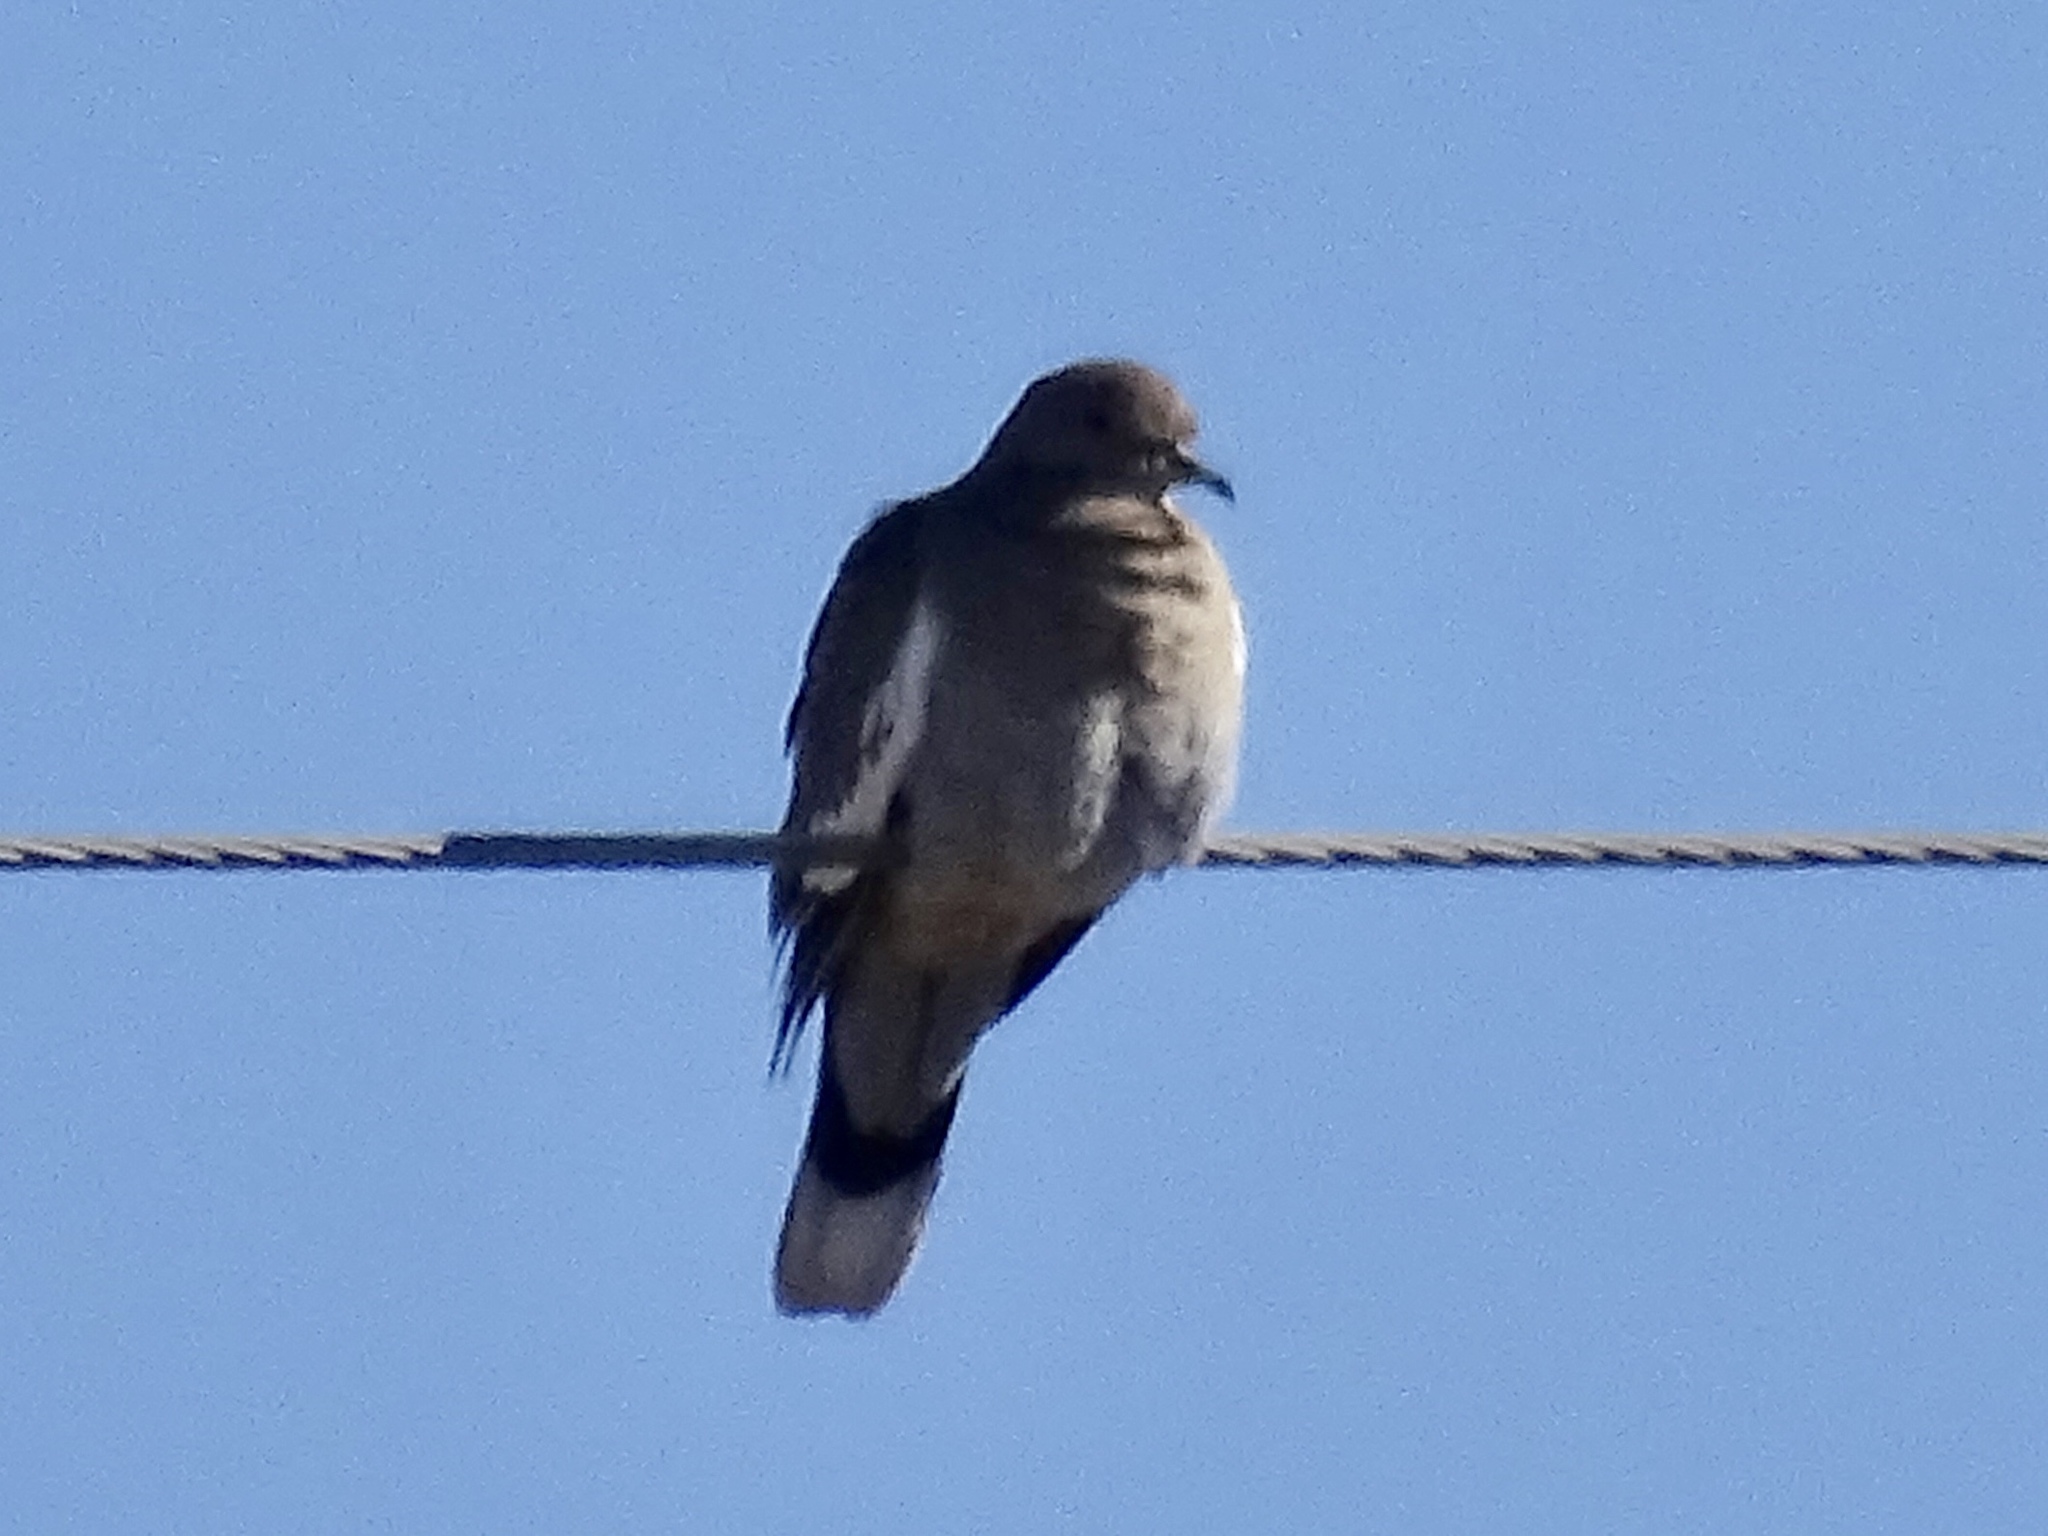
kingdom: Animalia
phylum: Chordata
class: Aves
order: Columbiformes
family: Columbidae
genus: Zenaida
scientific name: Zenaida asiatica
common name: White-winged dove
